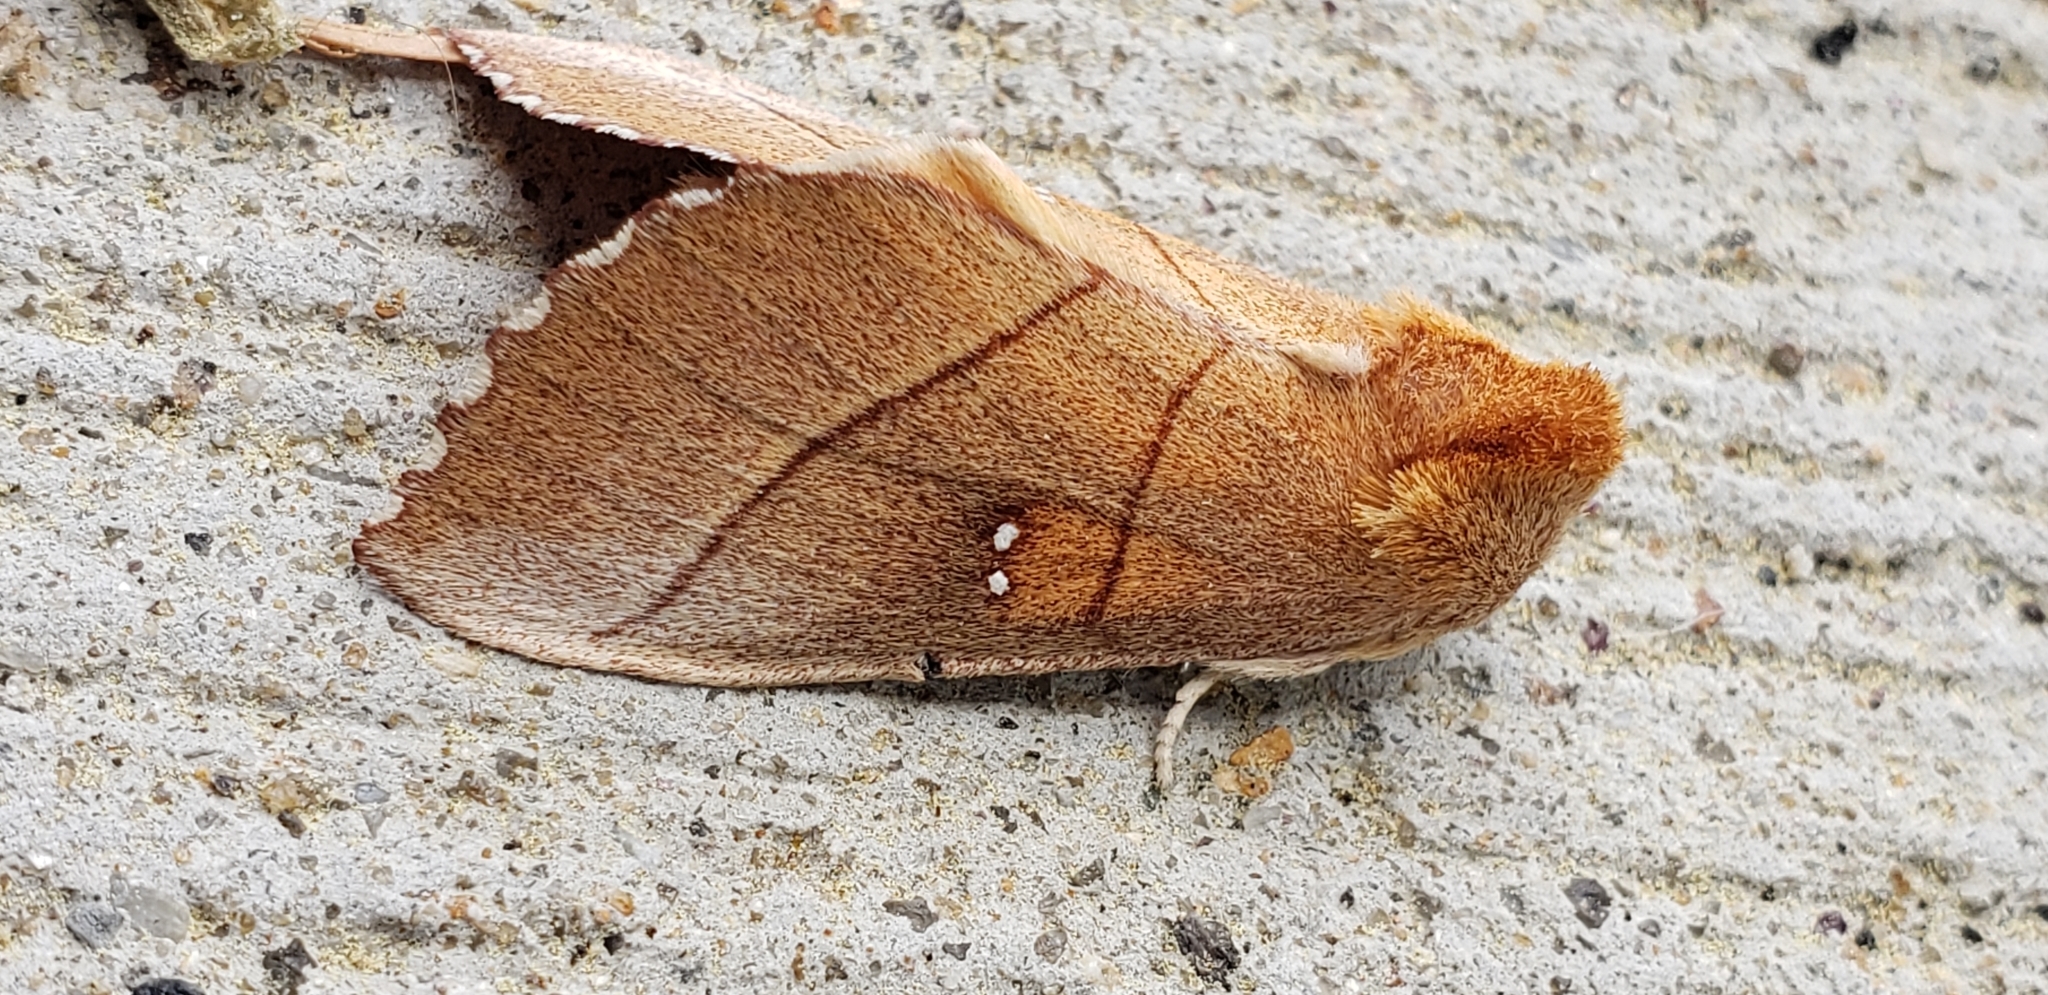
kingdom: Animalia
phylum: Arthropoda
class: Insecta
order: Lepidoptera
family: Notodontidae
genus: Nadata
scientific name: Nadata gibbosa
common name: White-dotted prominent
